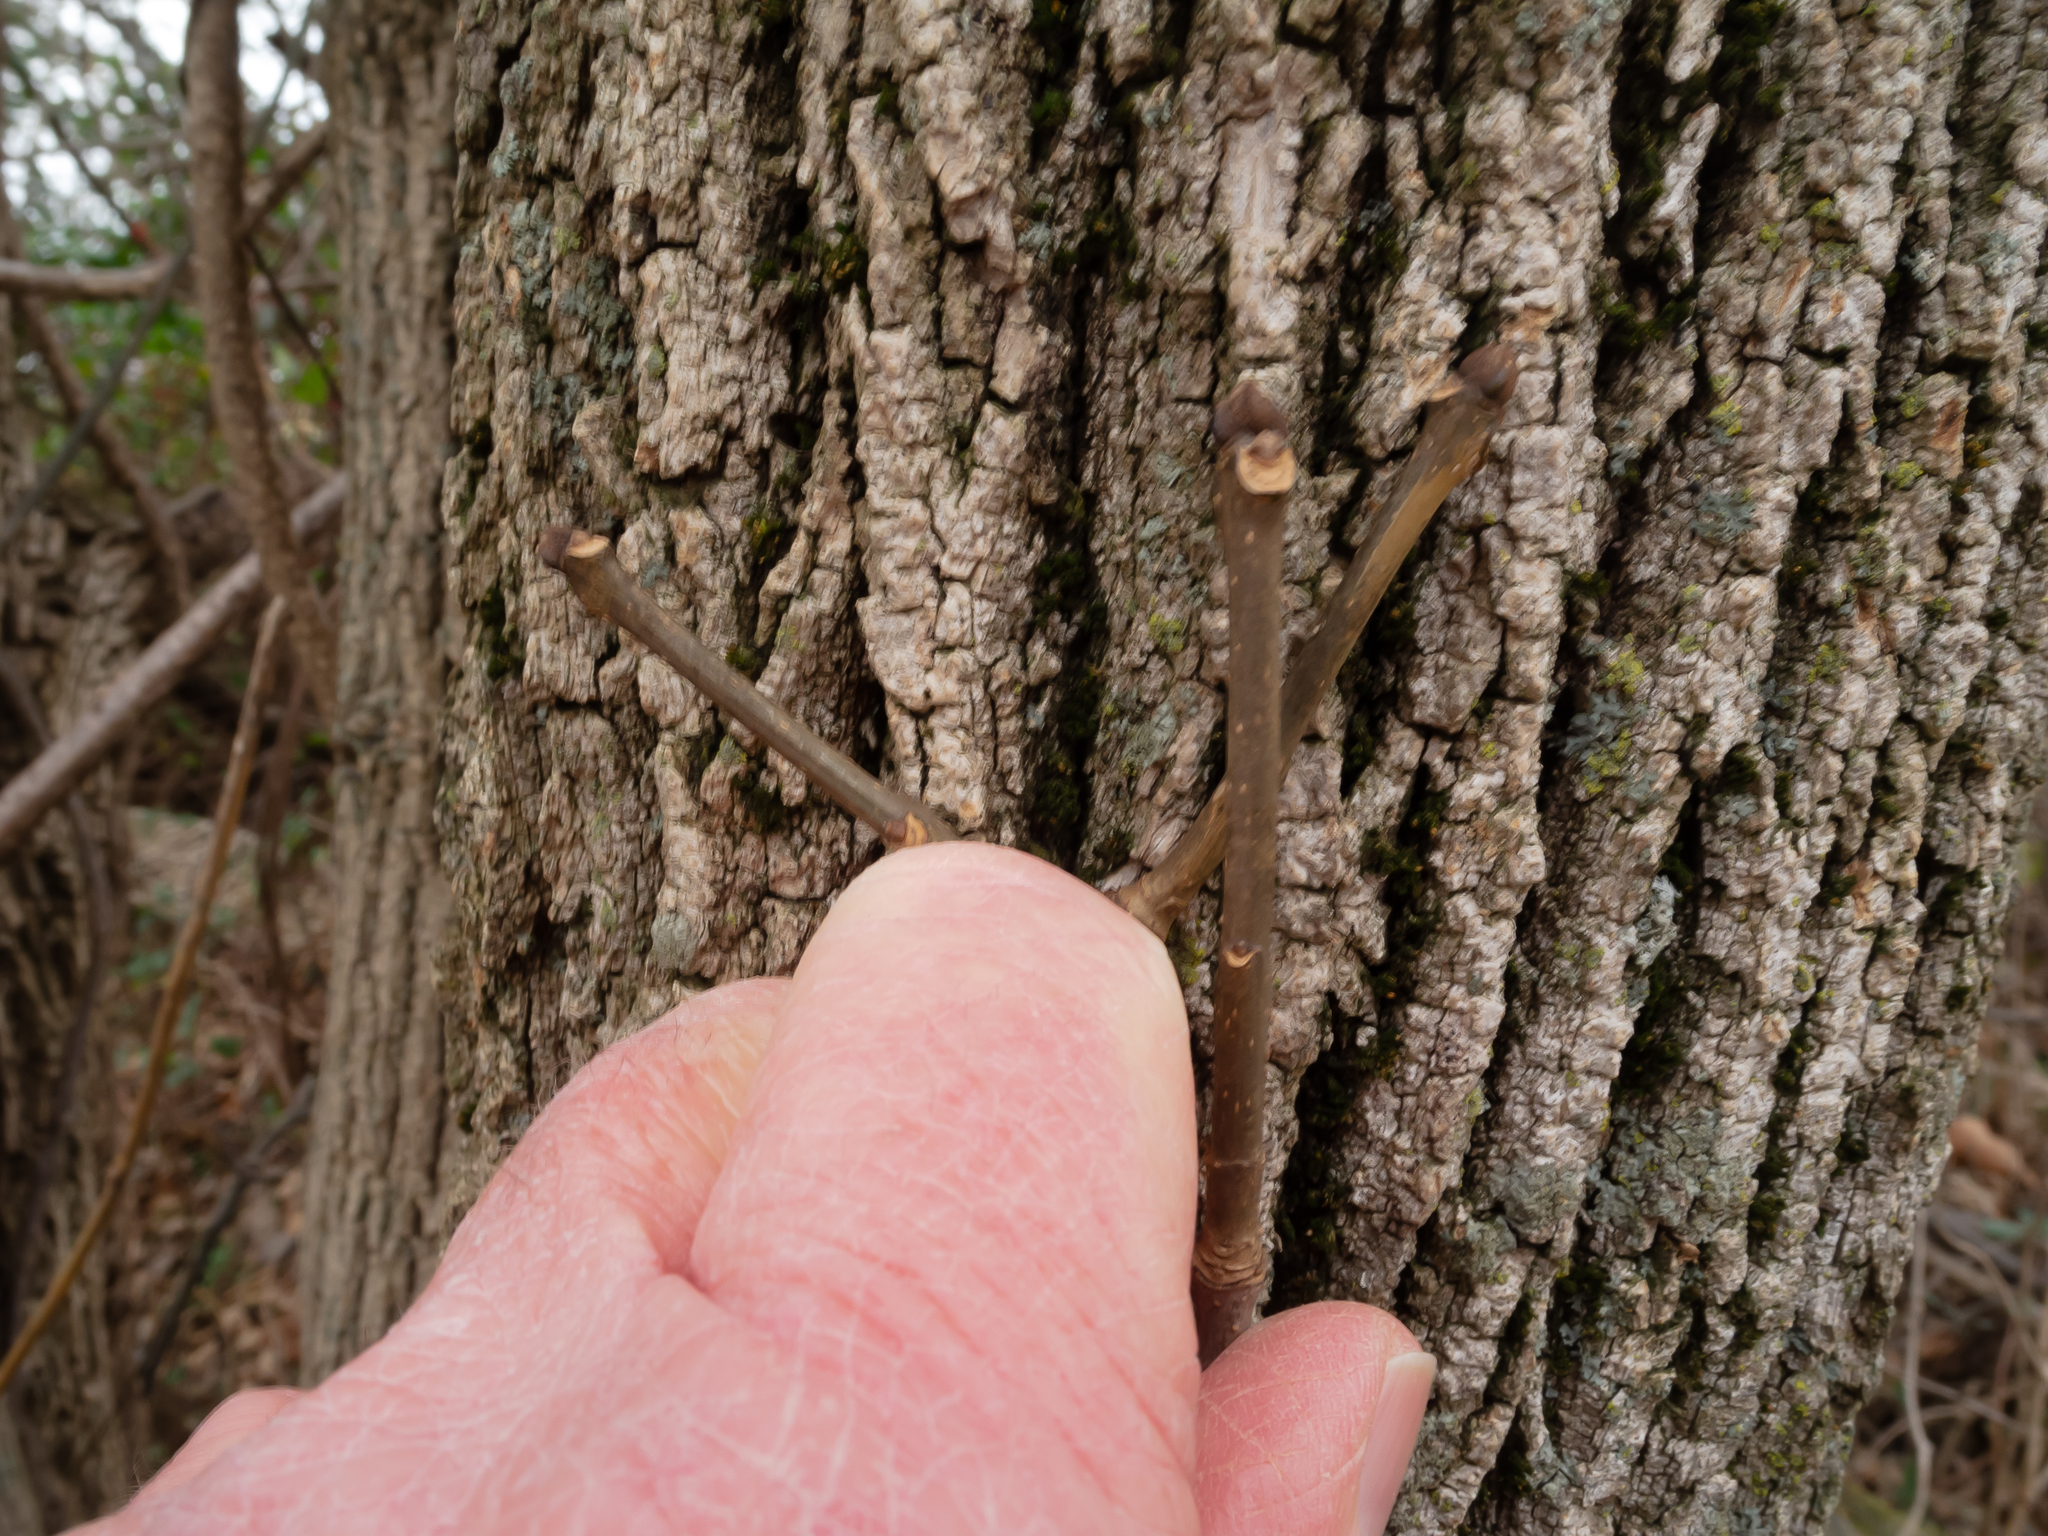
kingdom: Plantae
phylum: Tracheophyta
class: Magnoliopsida
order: Lamiales
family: Oleaceae
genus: Fraxinus
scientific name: Fraxinus pennsylvanica
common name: Green ash
